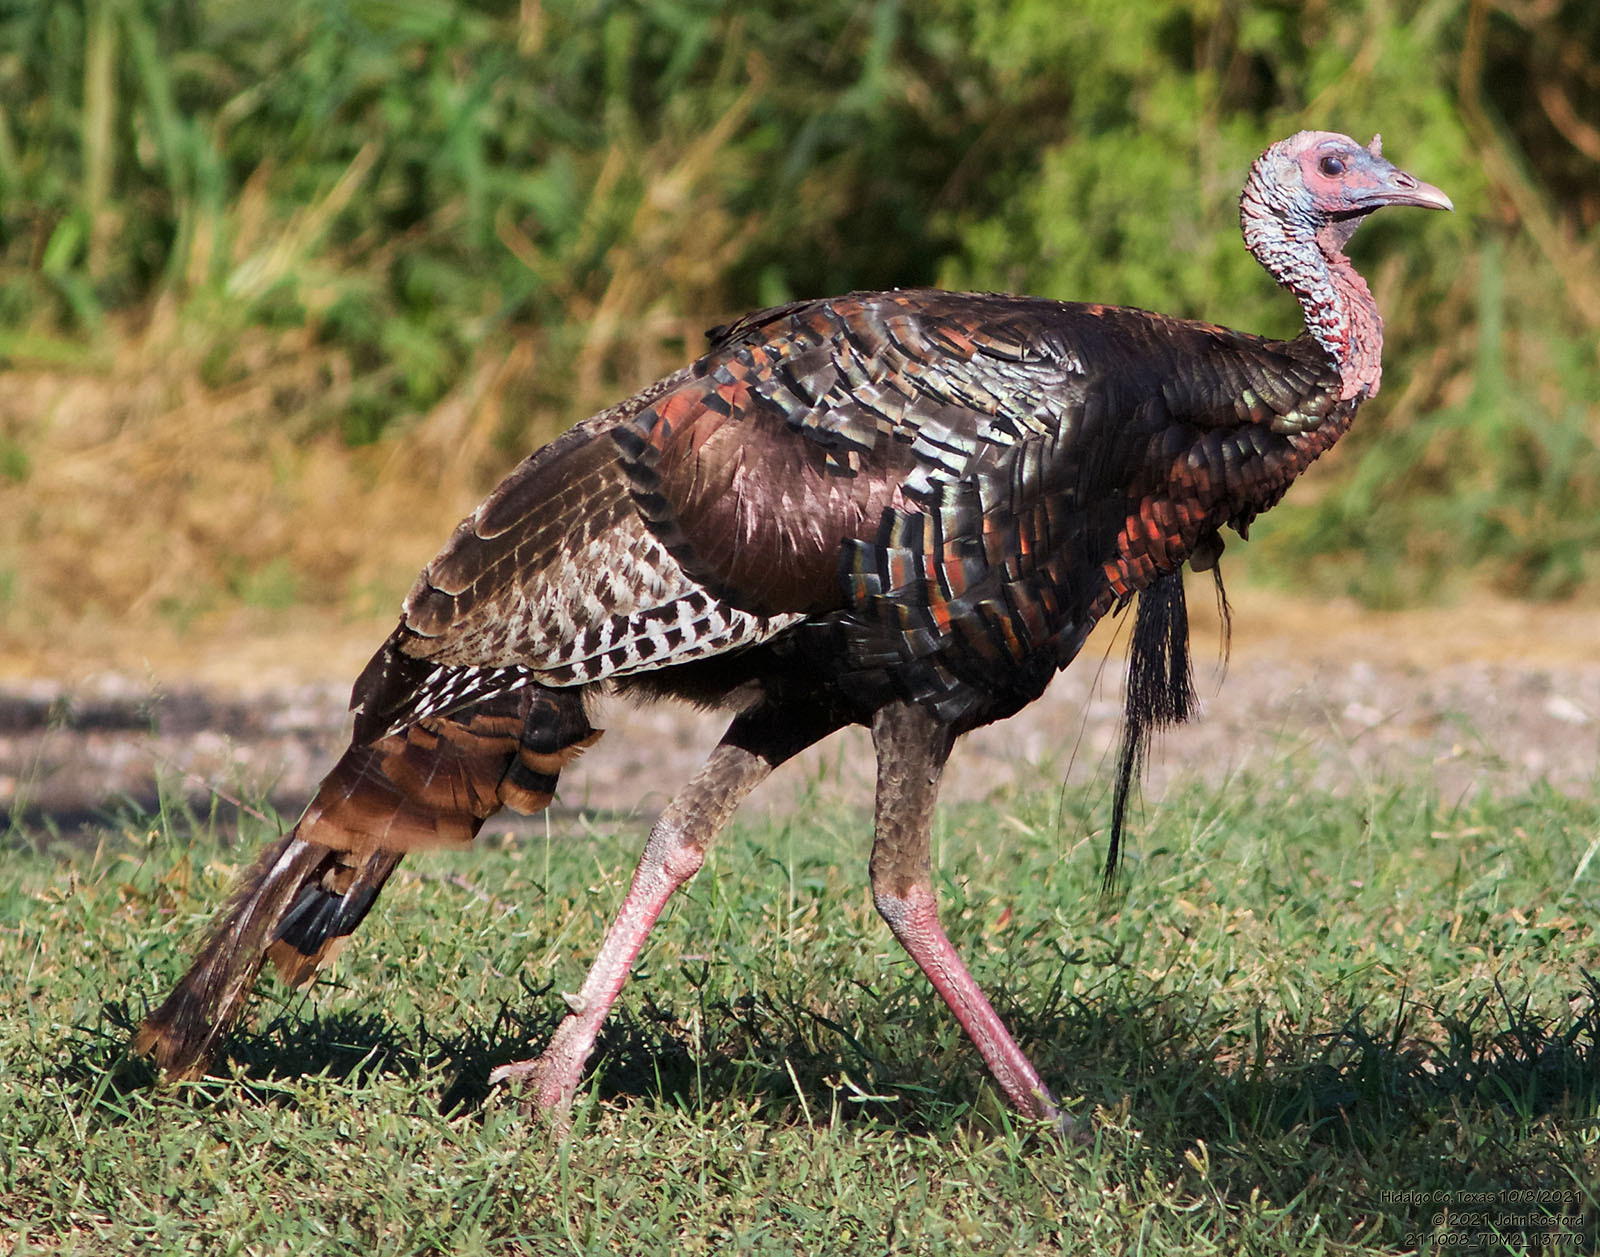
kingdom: Animalia
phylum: Chordata
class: Aves
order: Galliformes
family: Phasianidae
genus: Meleagris
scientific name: Meleagris gallopavo
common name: Wild turkey
